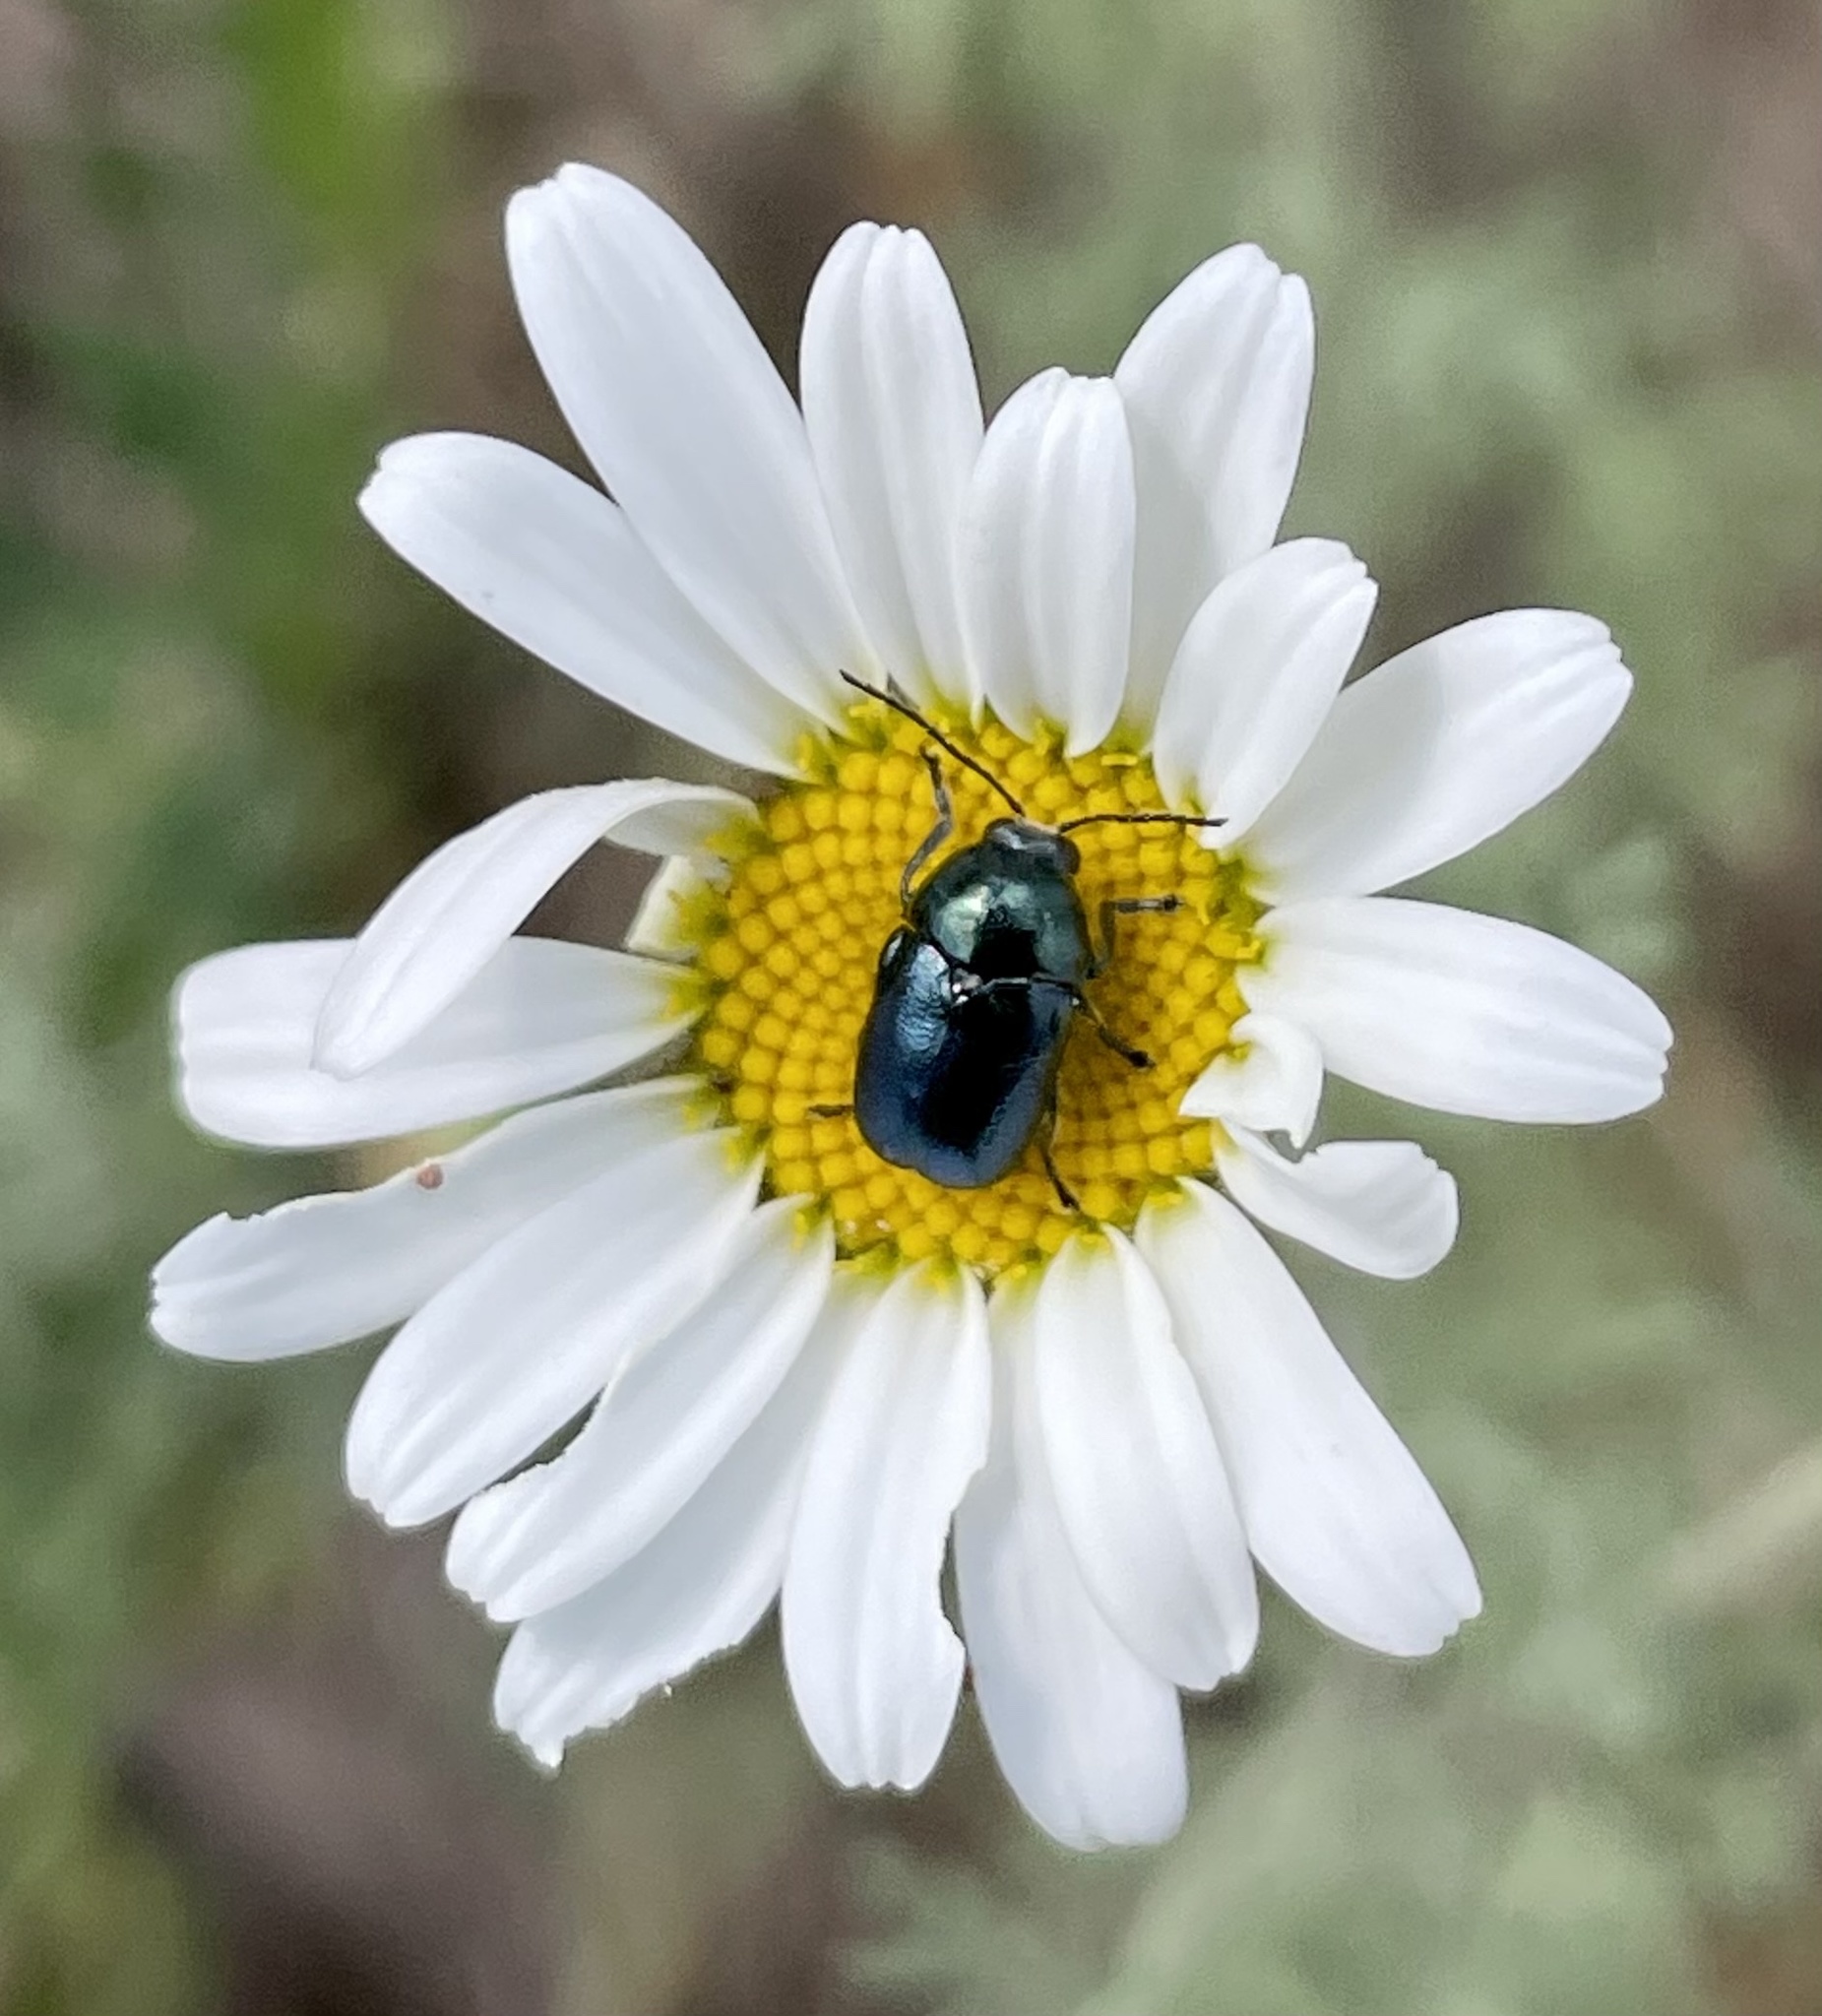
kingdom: Animalia
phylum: Arthropoda
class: Insecta
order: Coleoptera
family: Chrysomelidae
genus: Cryptocephalus
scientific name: Cryptocephalus violaceus
